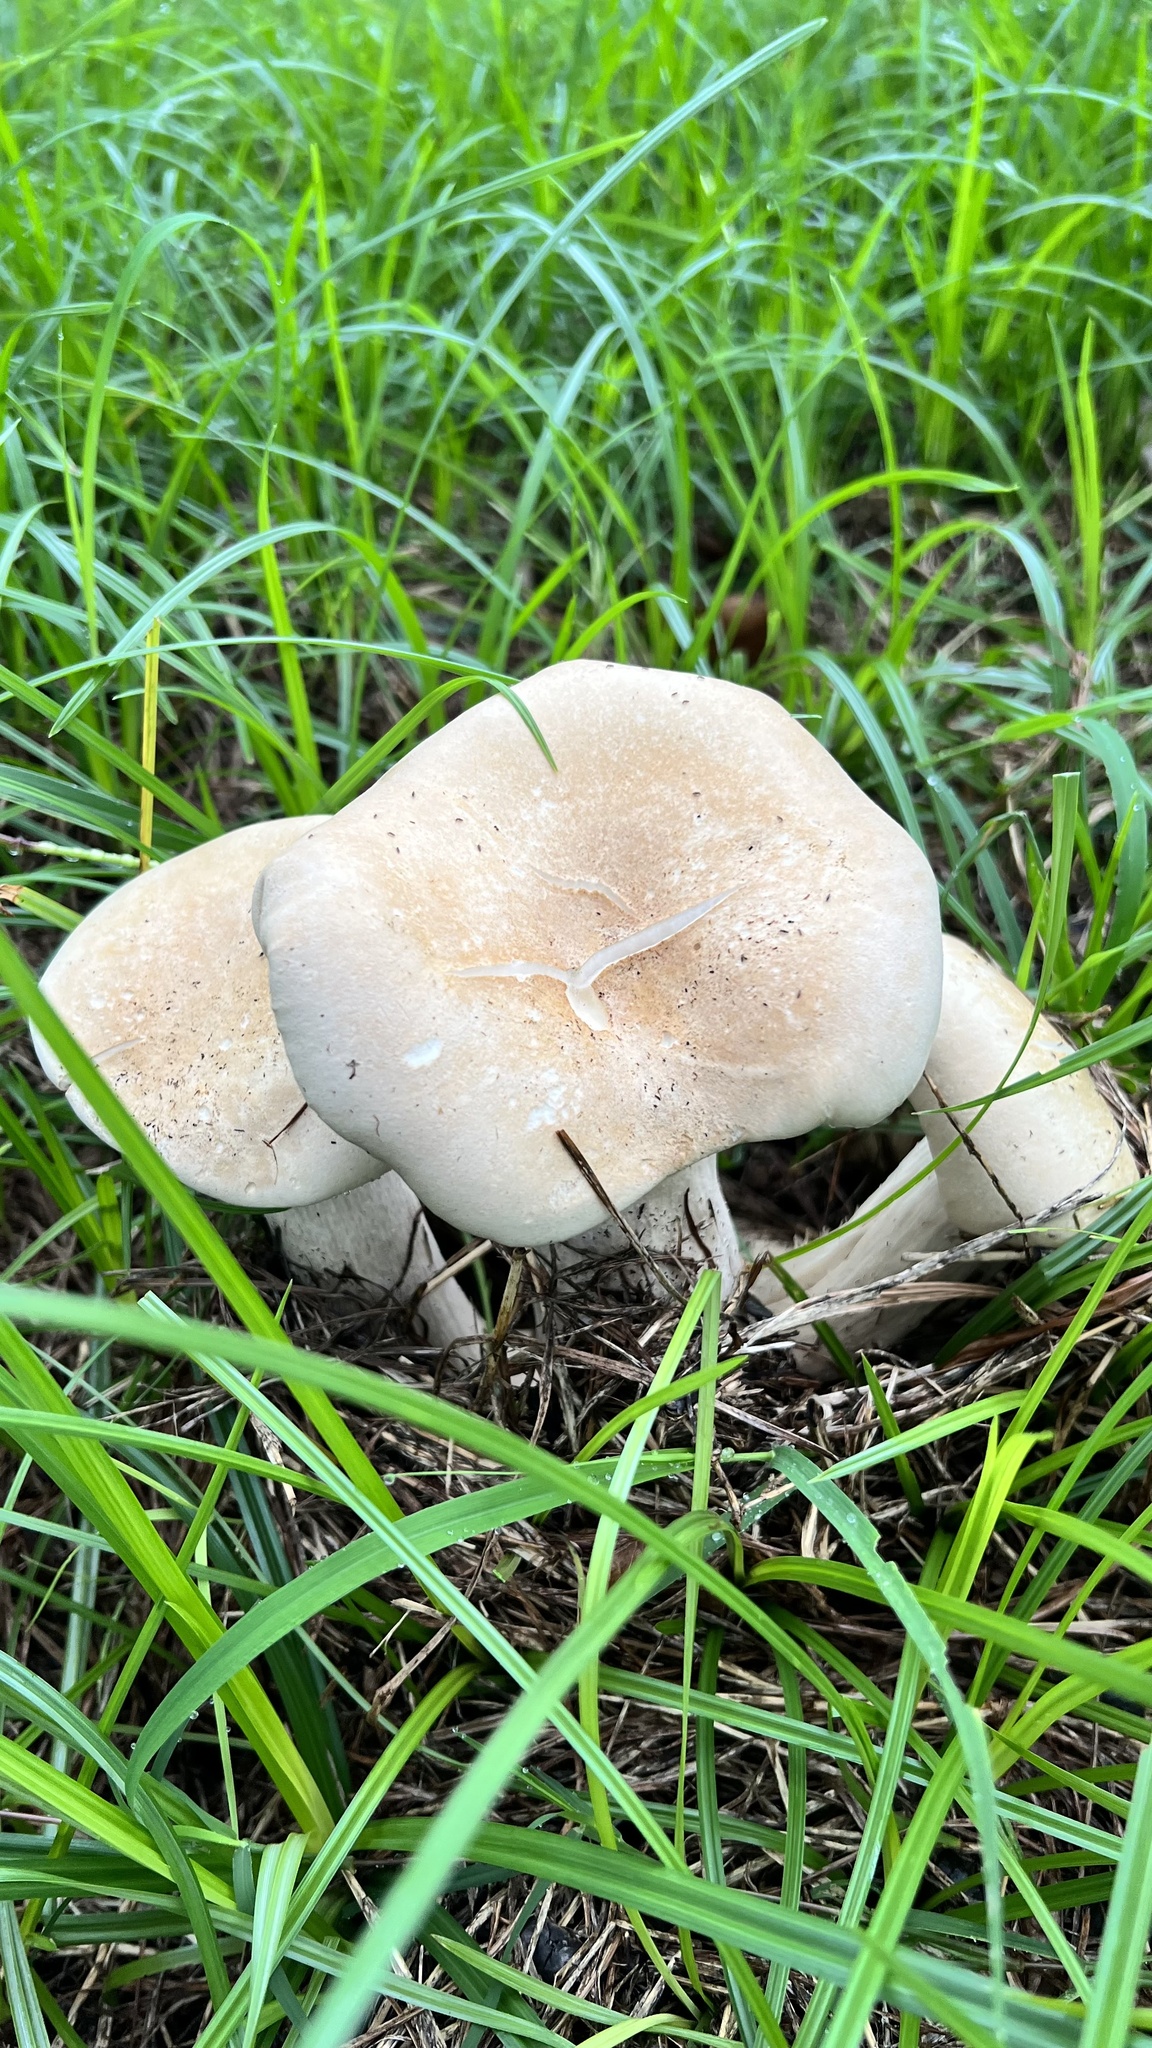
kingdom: Fungi
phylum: Basidiomycota
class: Agaricomycetes
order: Agaricales
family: Agaricaceae
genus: Agaricus
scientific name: Agaricus campestris
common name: Field mushroom
